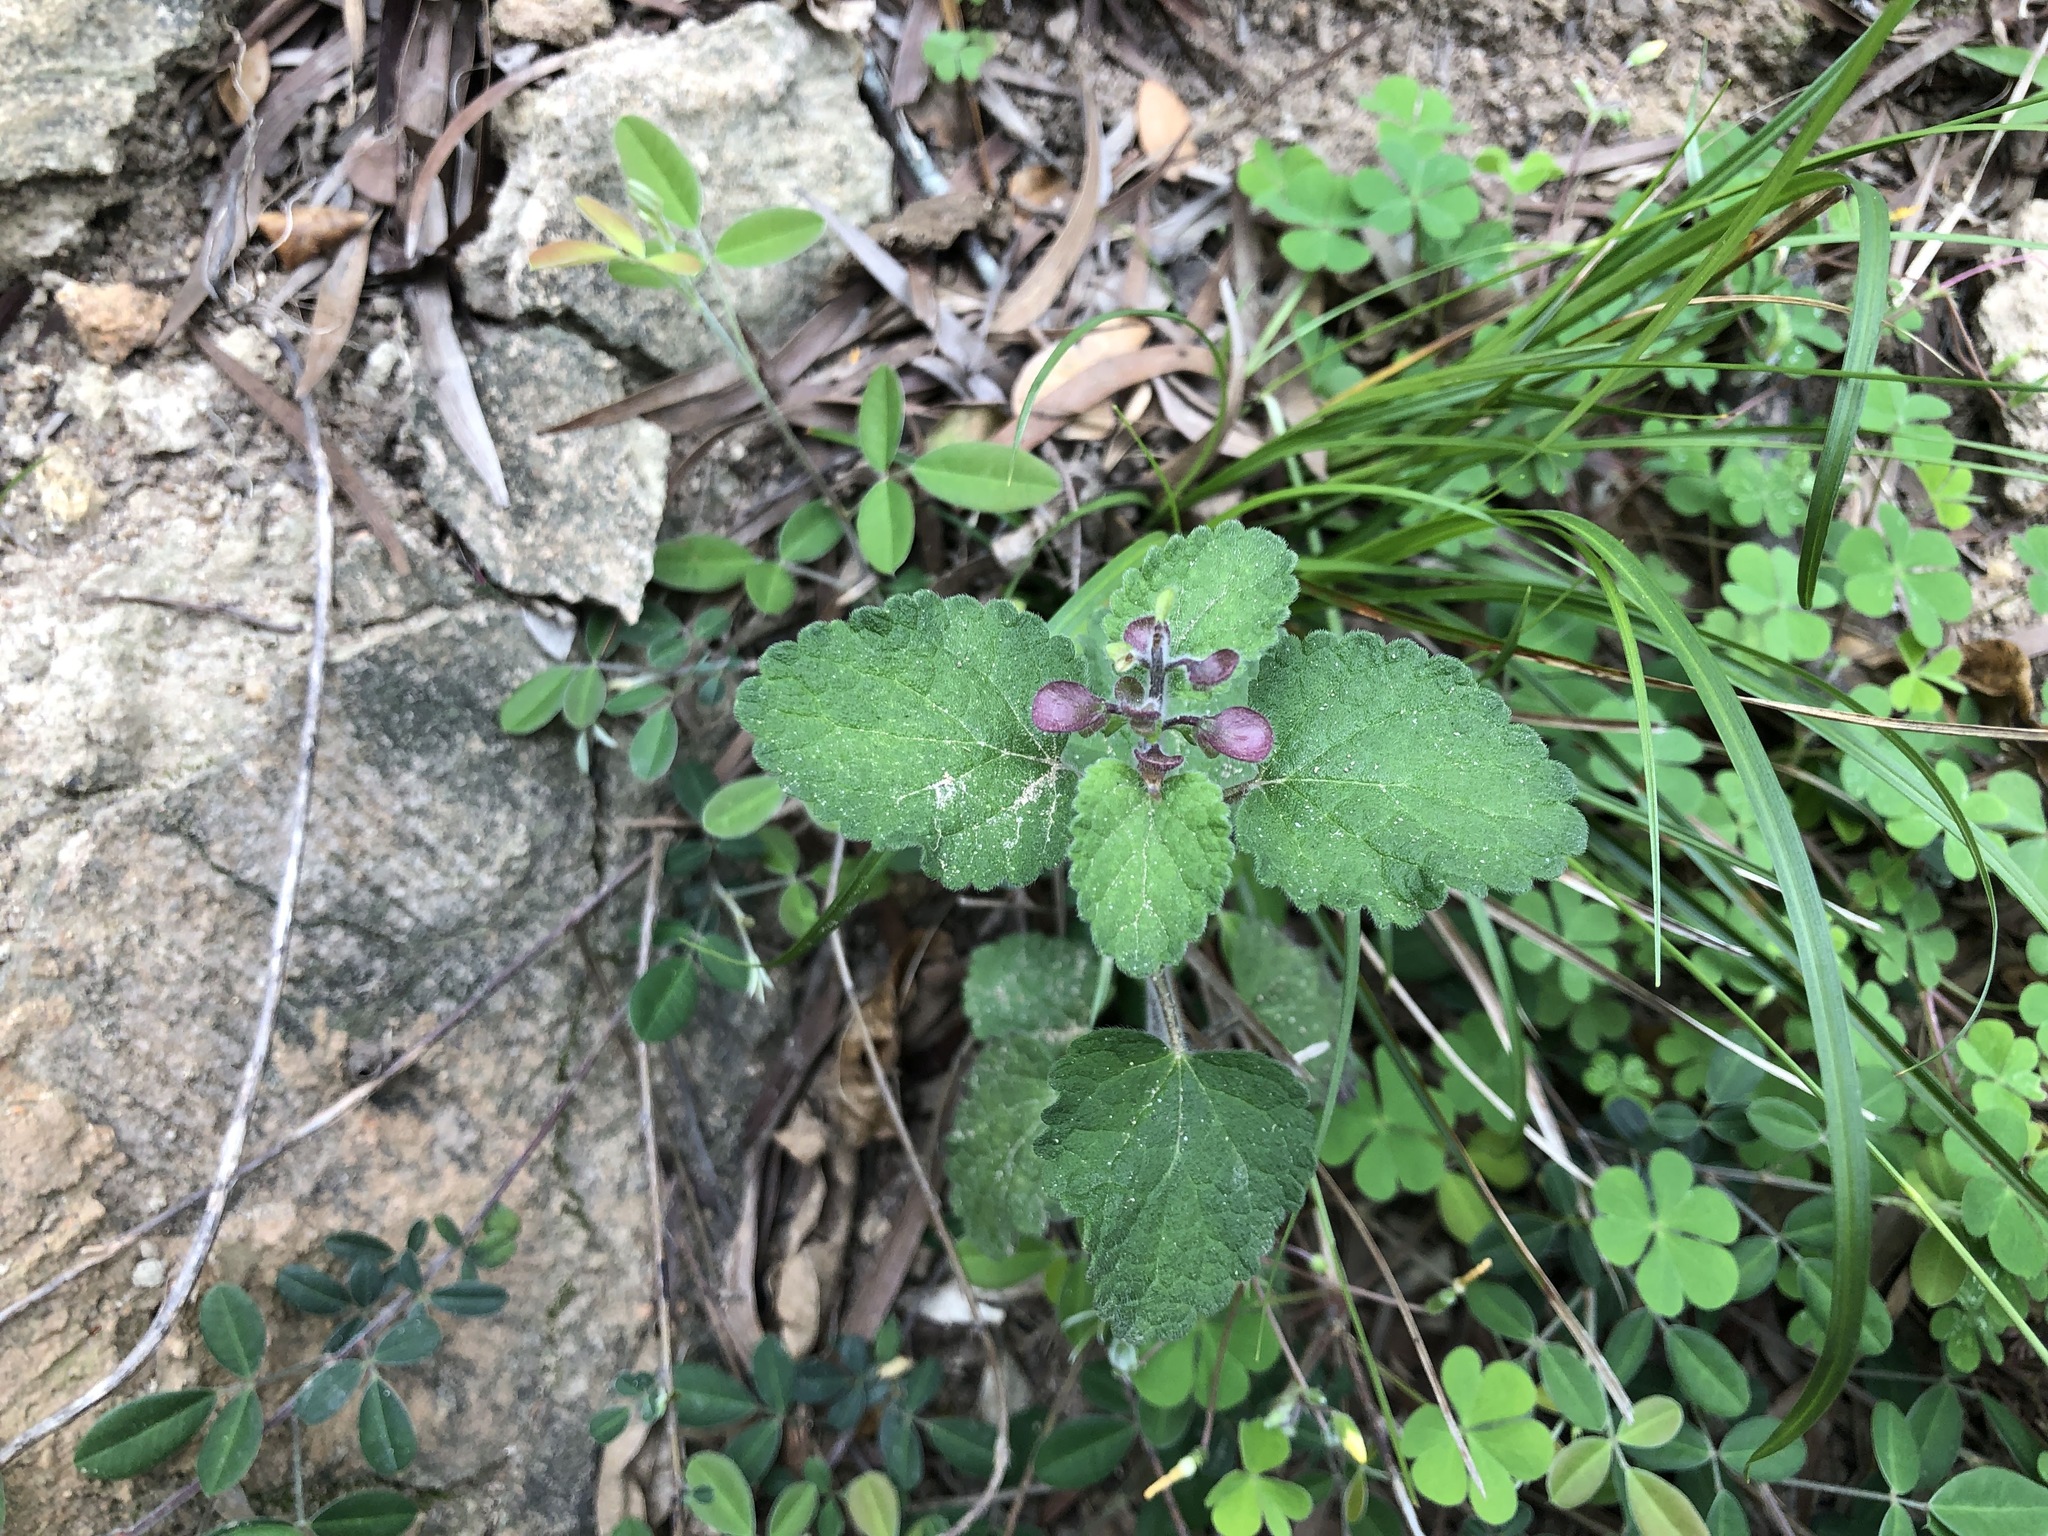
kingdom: Plantae
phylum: Tracheophyta
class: Magnoliopsida
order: Lamiales
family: Lamiaceae
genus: Scutellaria
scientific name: Scutellaria indica
